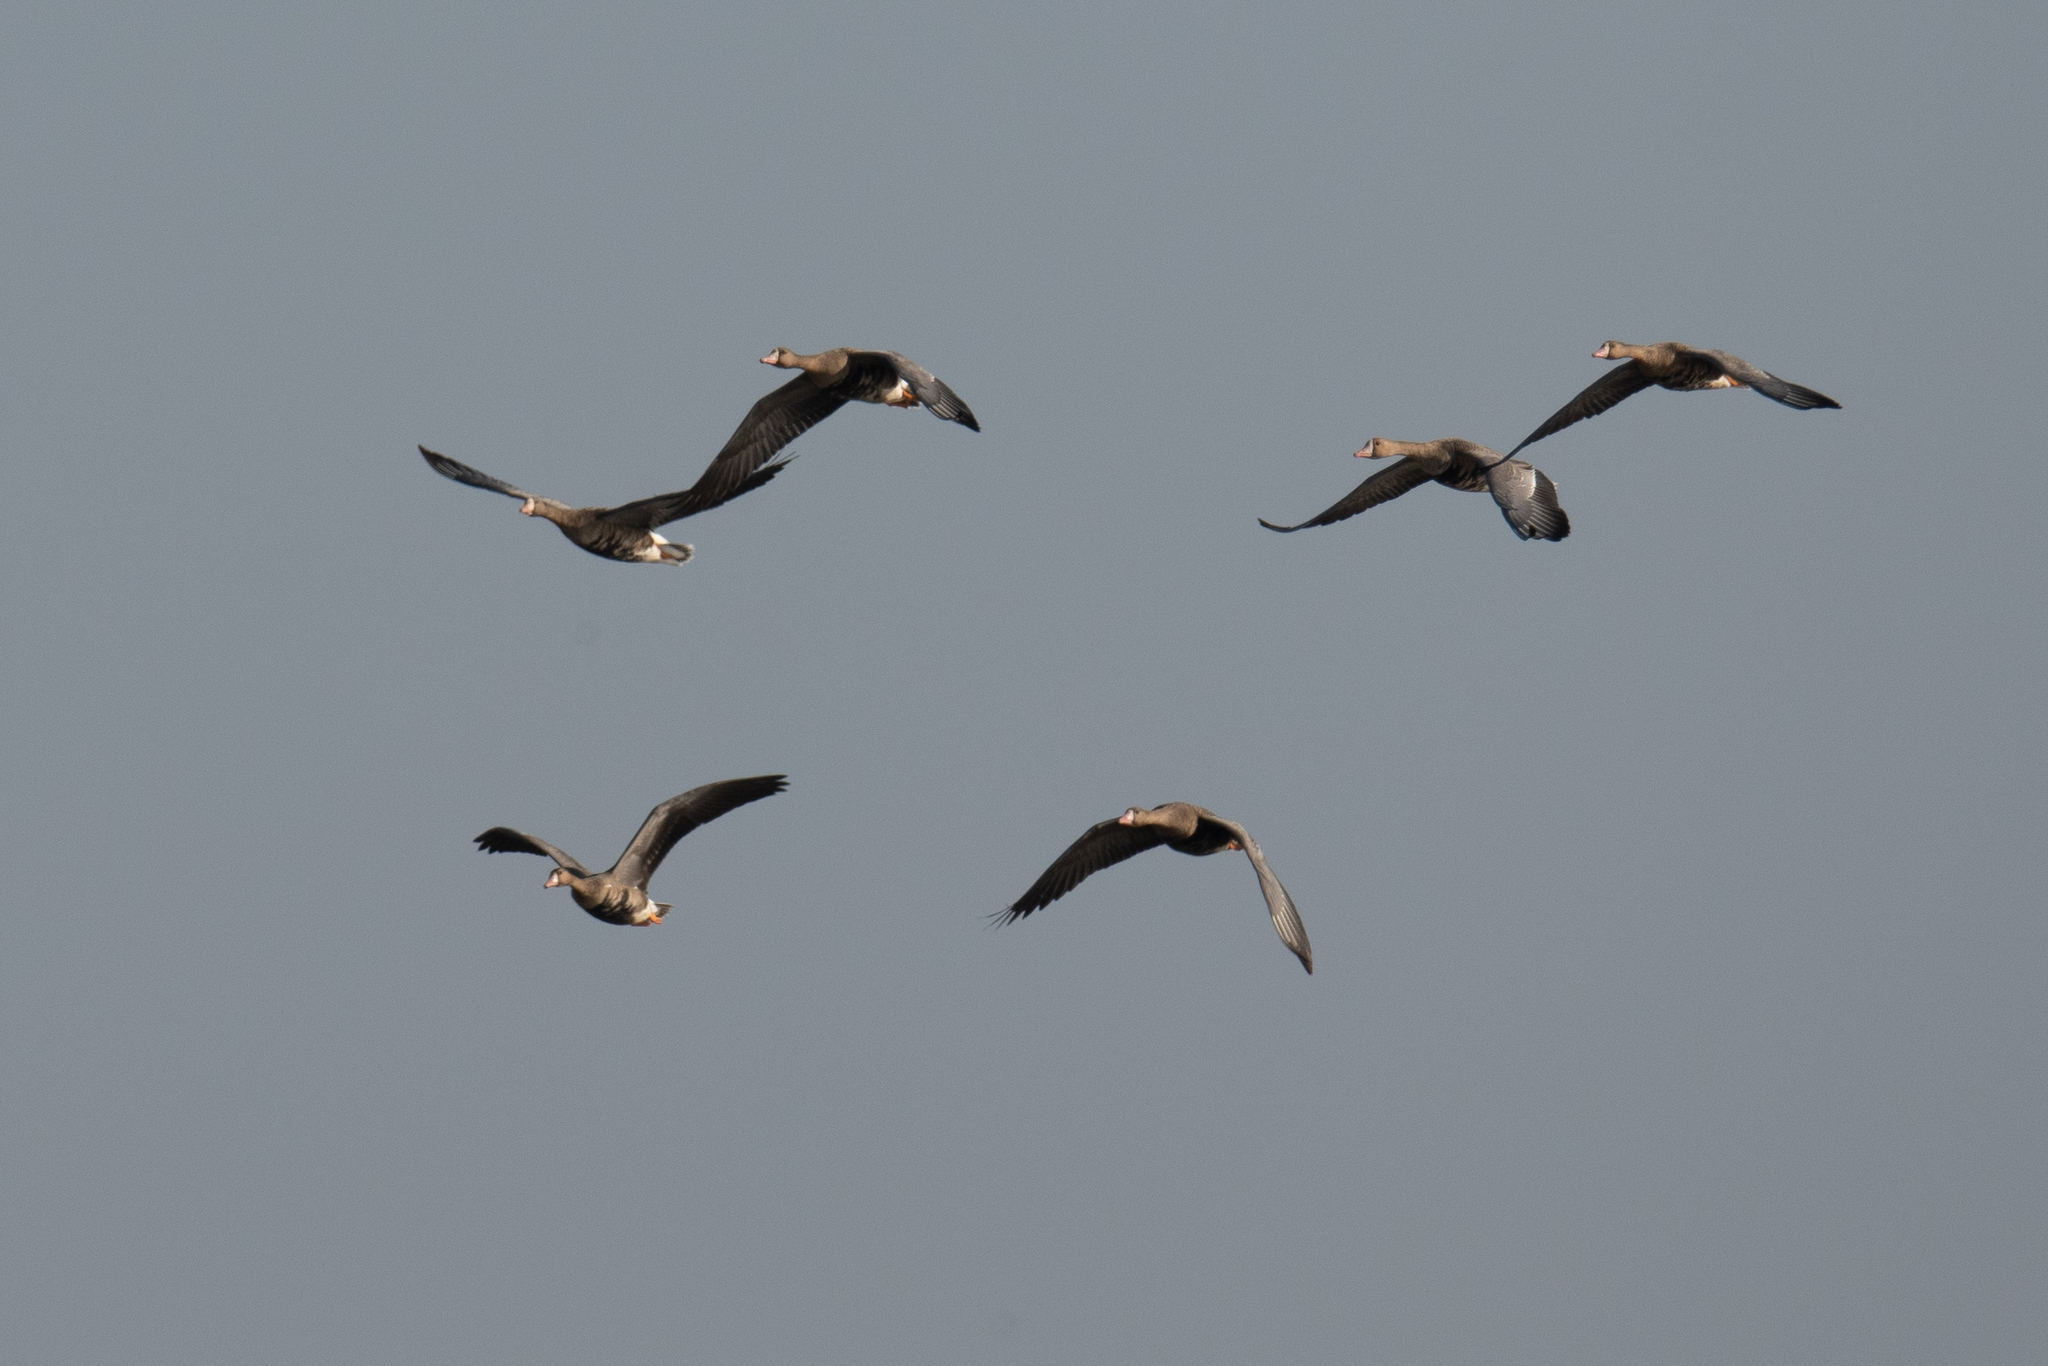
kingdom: Animalia
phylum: Chordata
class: Aves
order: Anseriformes
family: Anatidae
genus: Anser
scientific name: Anser albifrons
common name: Greater white-fronted goose
